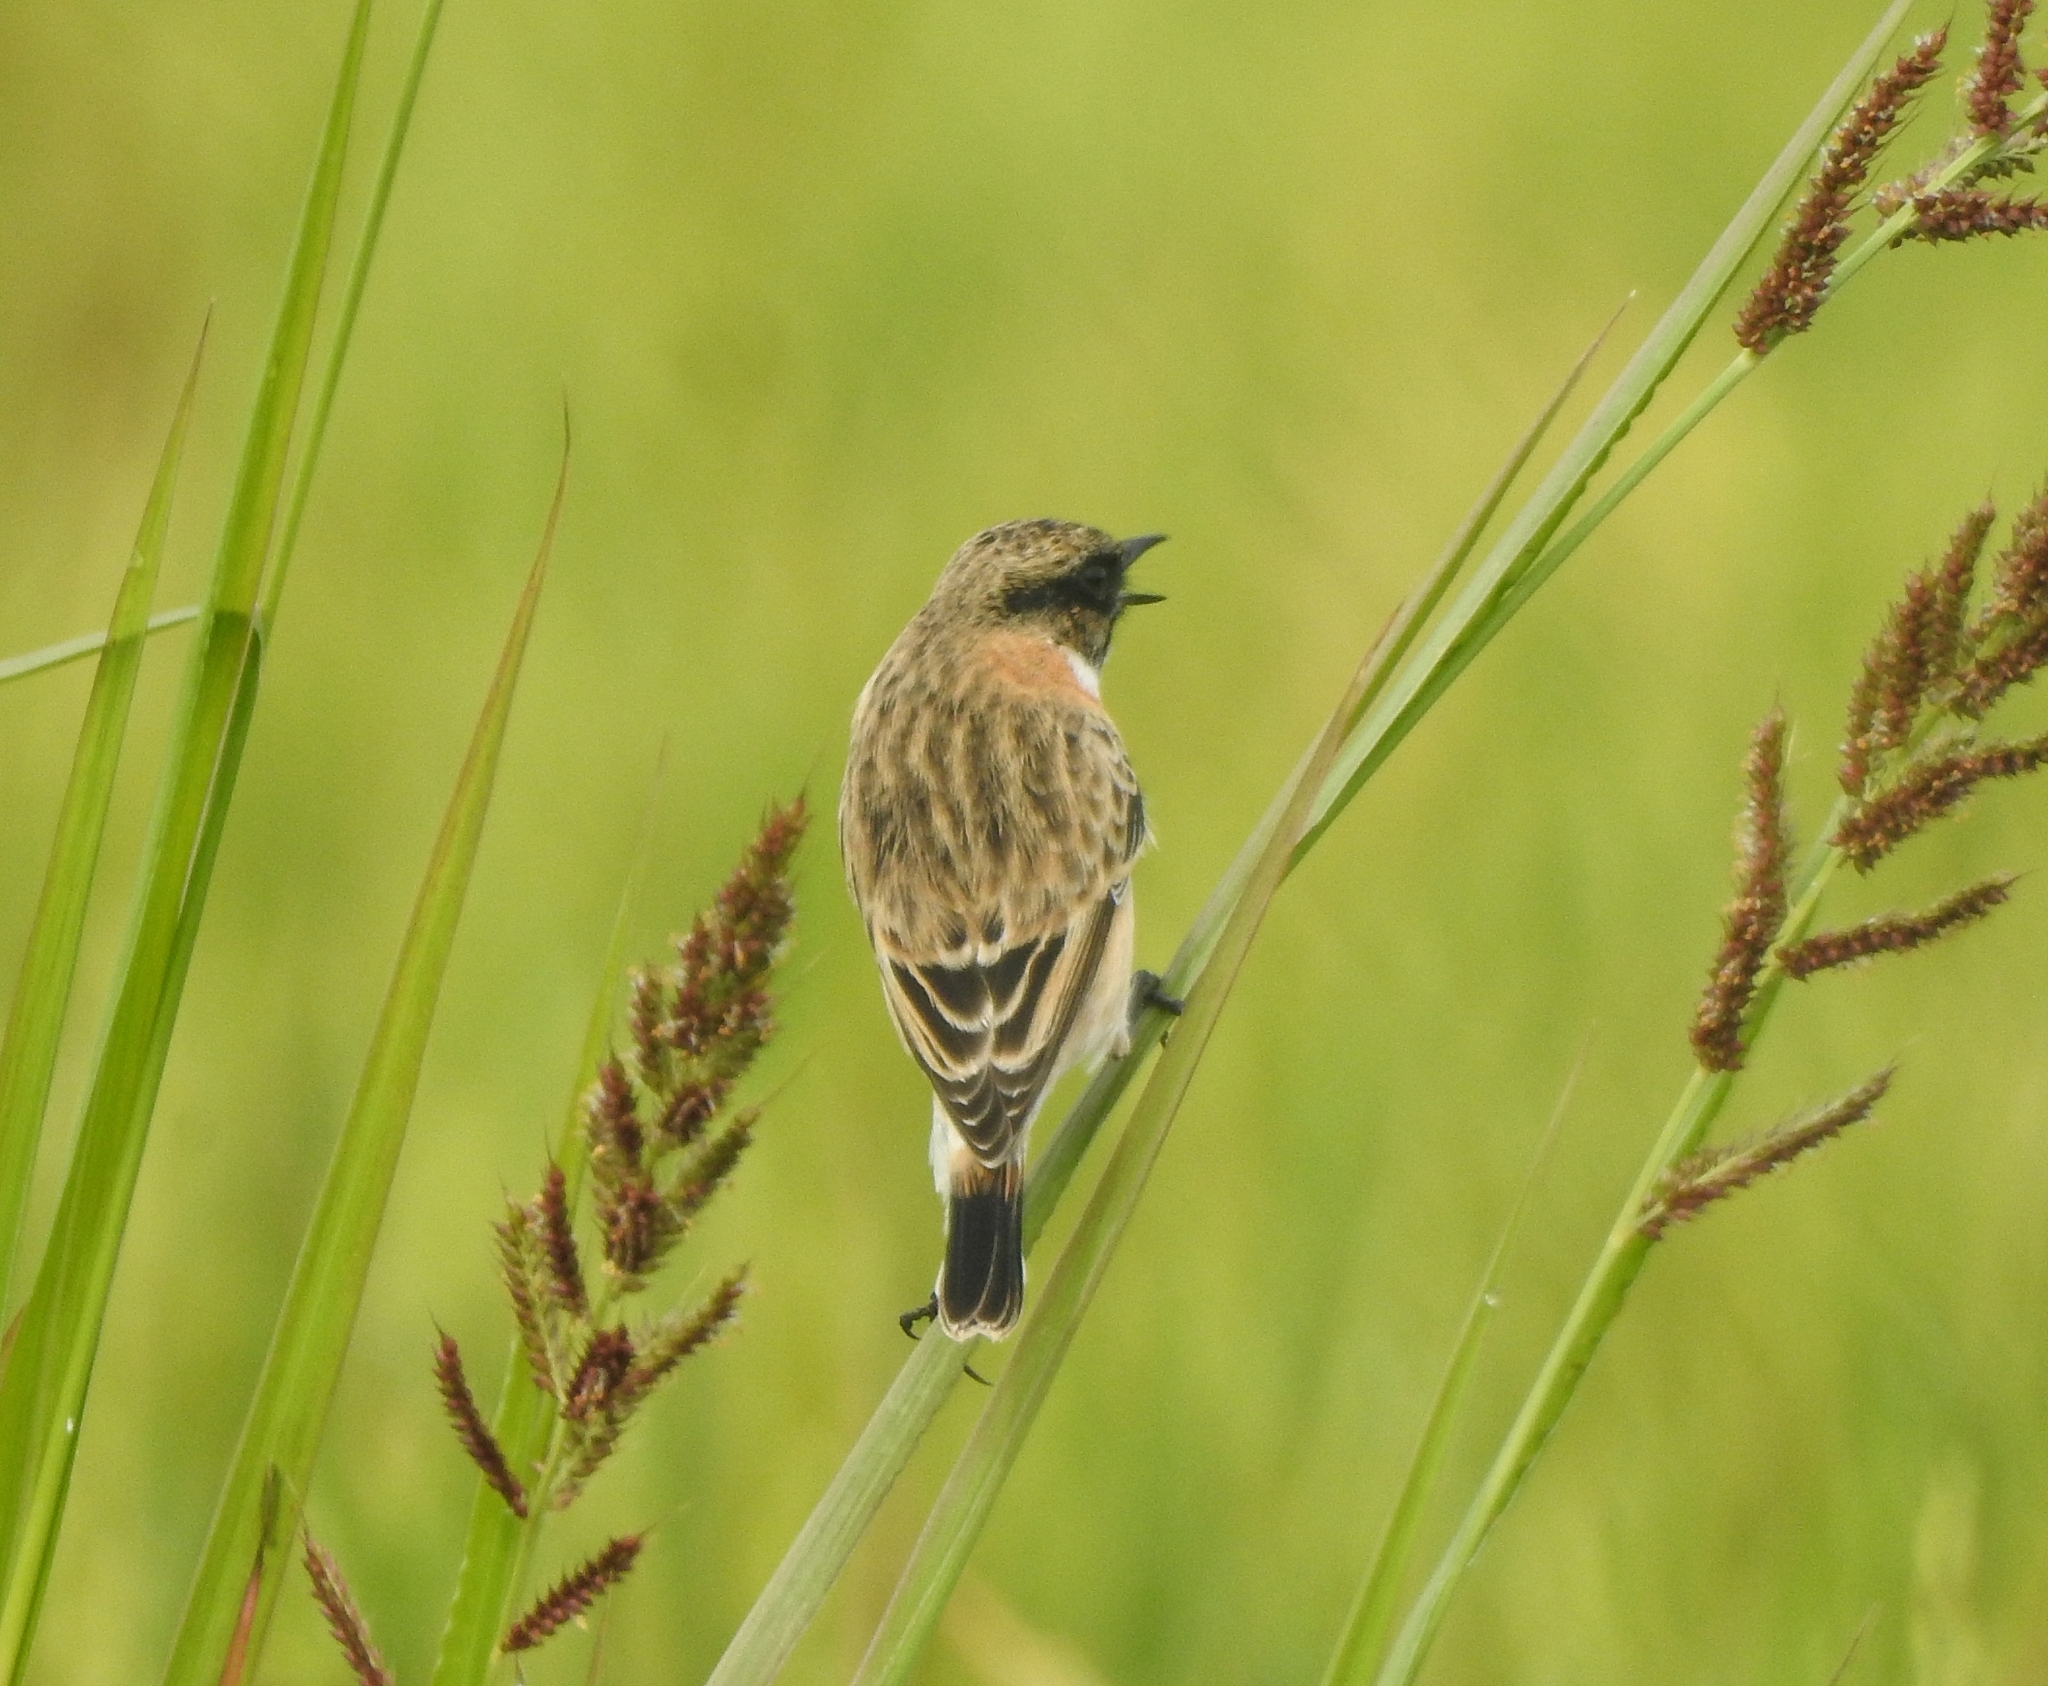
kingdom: Animalia
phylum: Chordata
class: Aves
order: Passeriformes
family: Muscicapidae
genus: Saxicola
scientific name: Saxicola maurus
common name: Siberian stonechat
